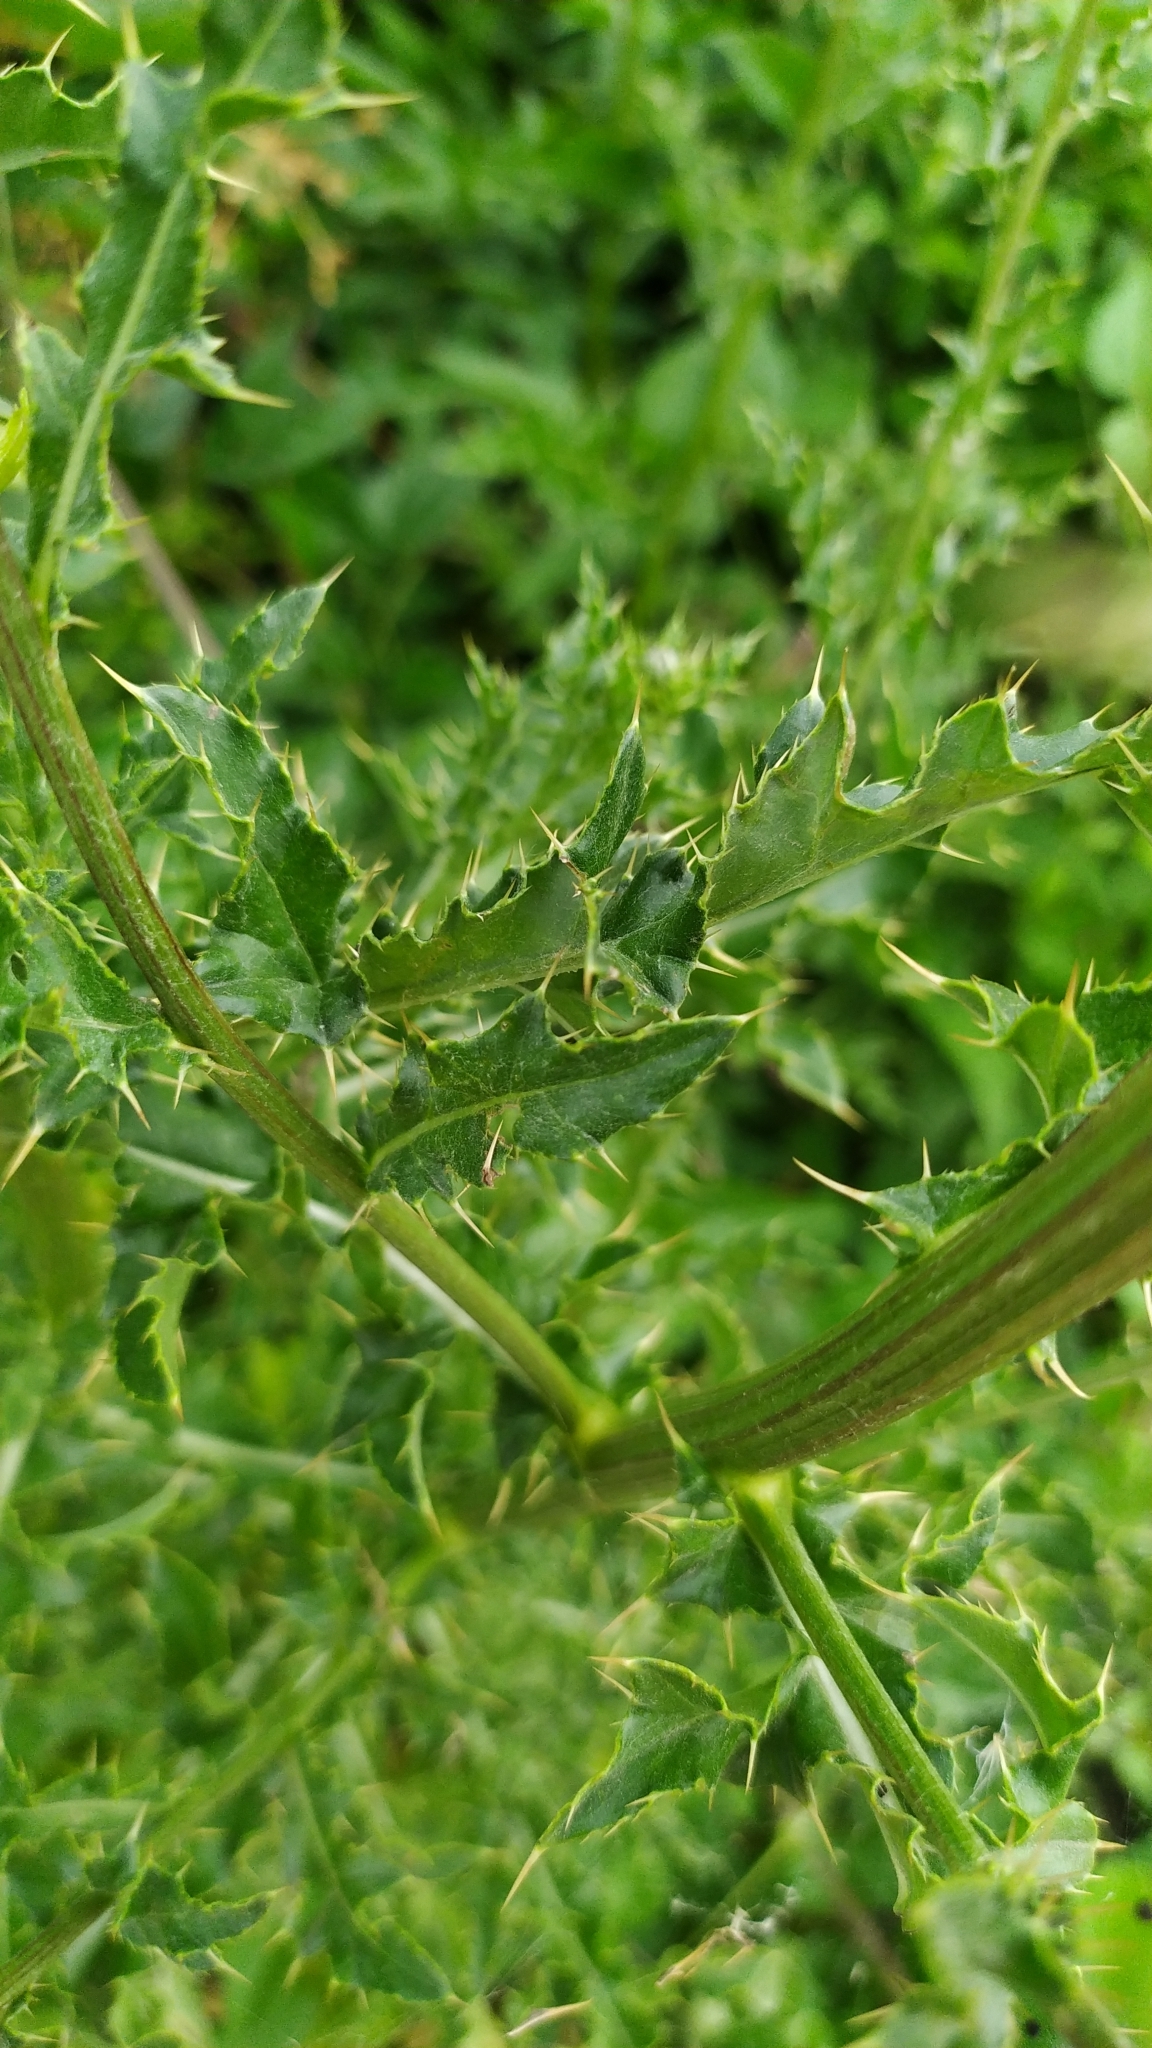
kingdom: Plantae
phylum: Tracheophyta
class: Magnoliopsida
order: Asterales
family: Asteraceae
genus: Cirsium
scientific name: Cirsium arvense
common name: Creeping thistle
